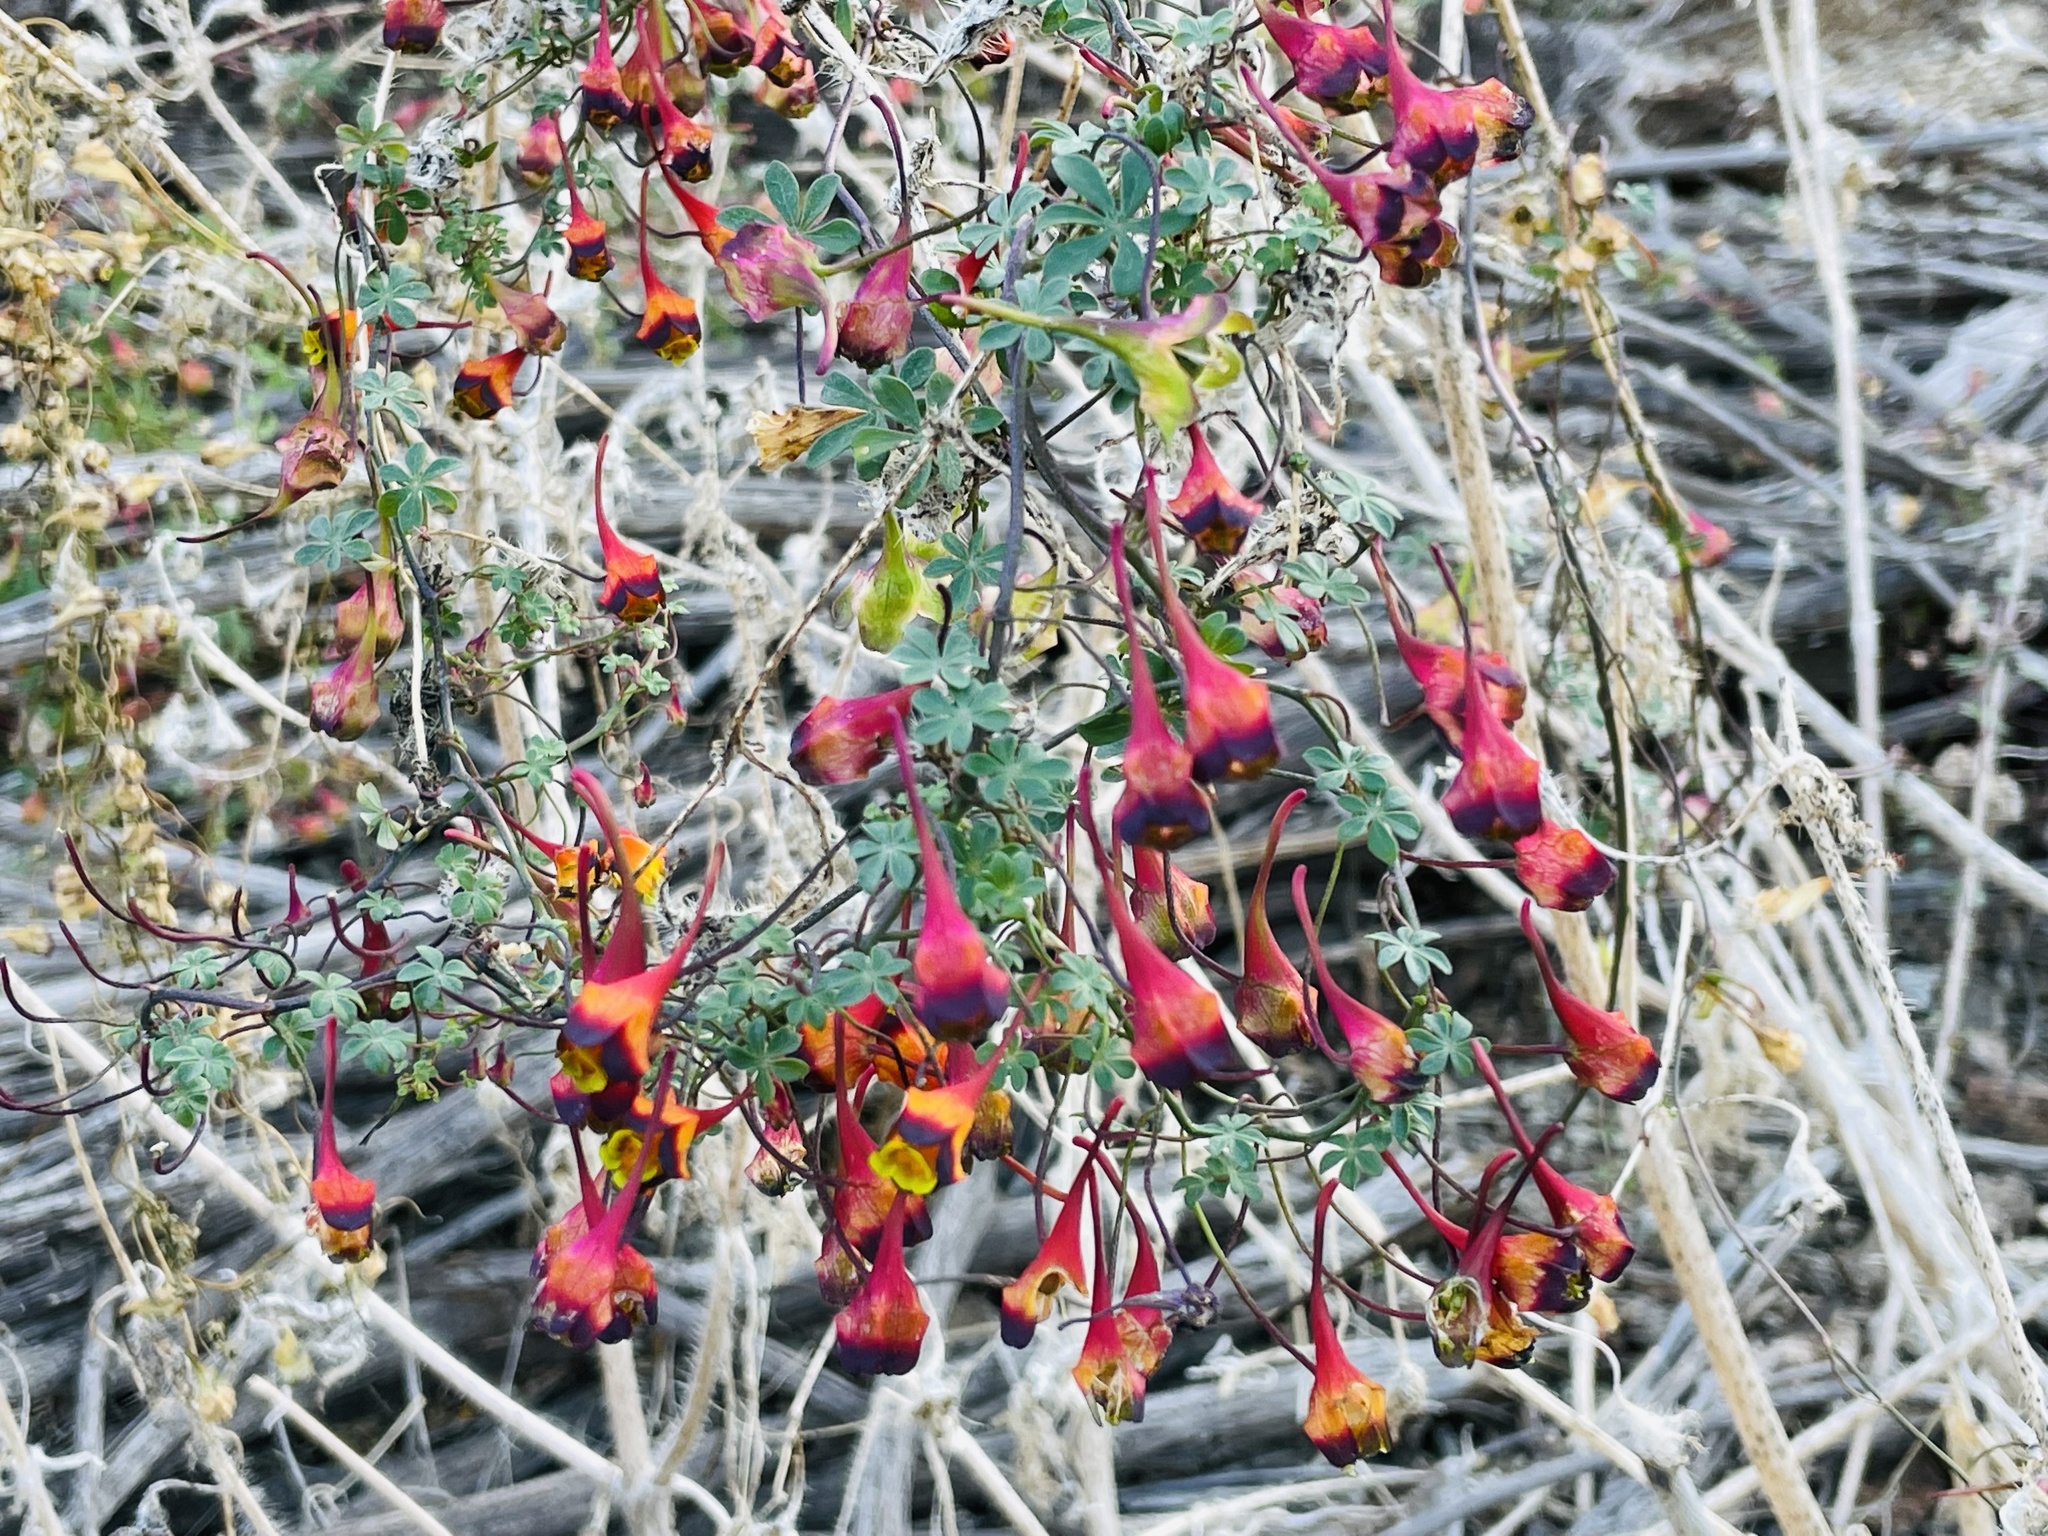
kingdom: Plantae
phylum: Tracheophyta
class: Magnoliopsida
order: Brassicales
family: Tropaeolaceae
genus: Tropaeolum
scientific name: Tropaeolum tricolor
